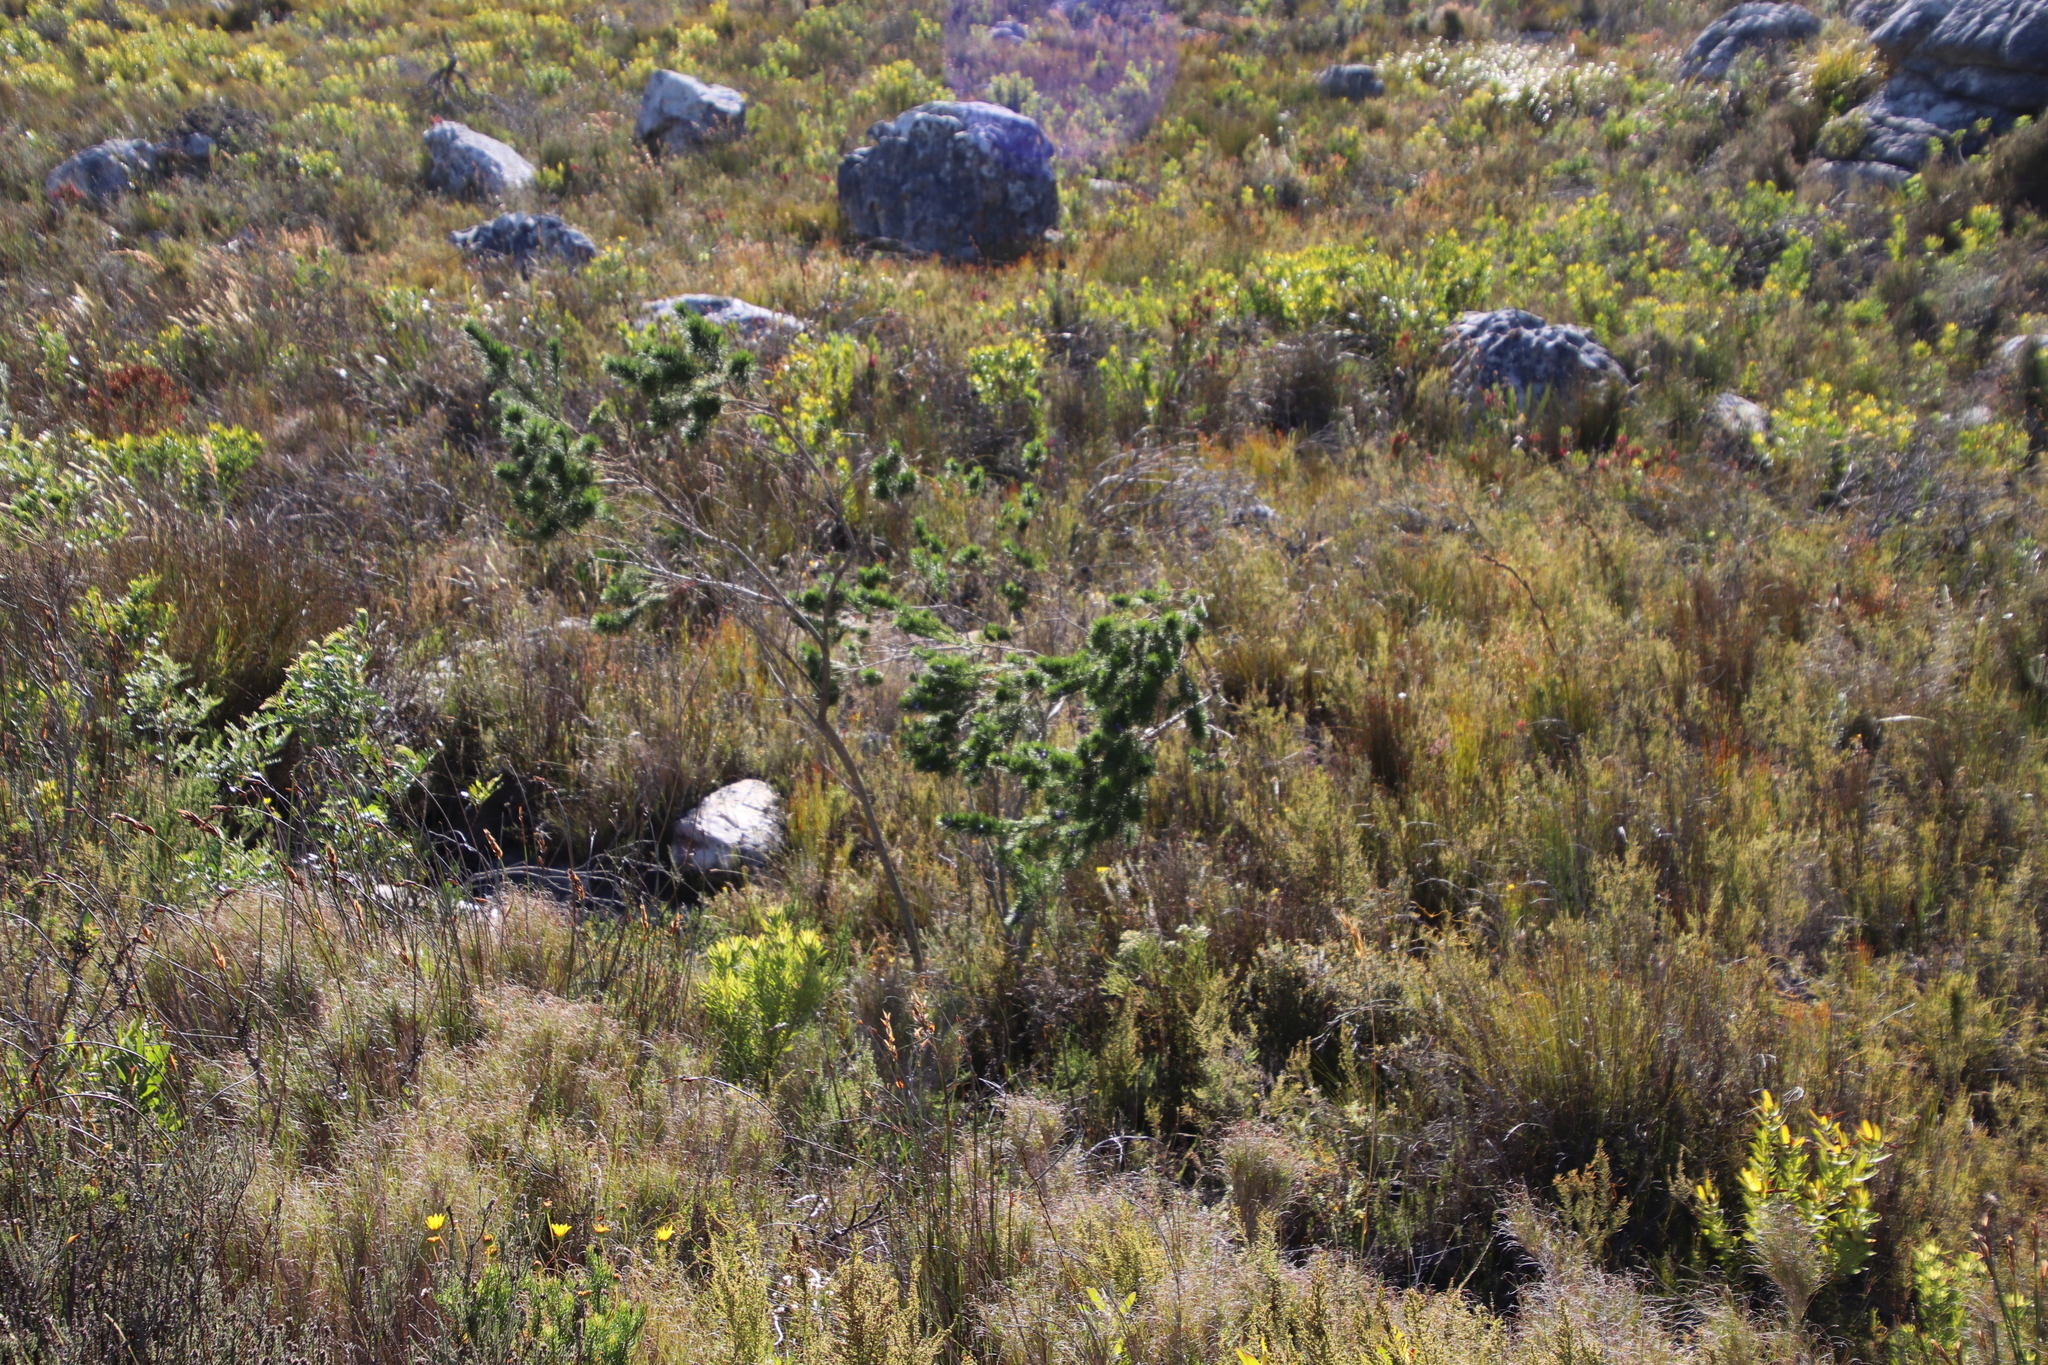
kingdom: Plantae
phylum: Tracheophyta
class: Magnoliopsida
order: Fabales
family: Fabaceae
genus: Psoralea
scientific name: Psoralea pinnata
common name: African scurfpea
